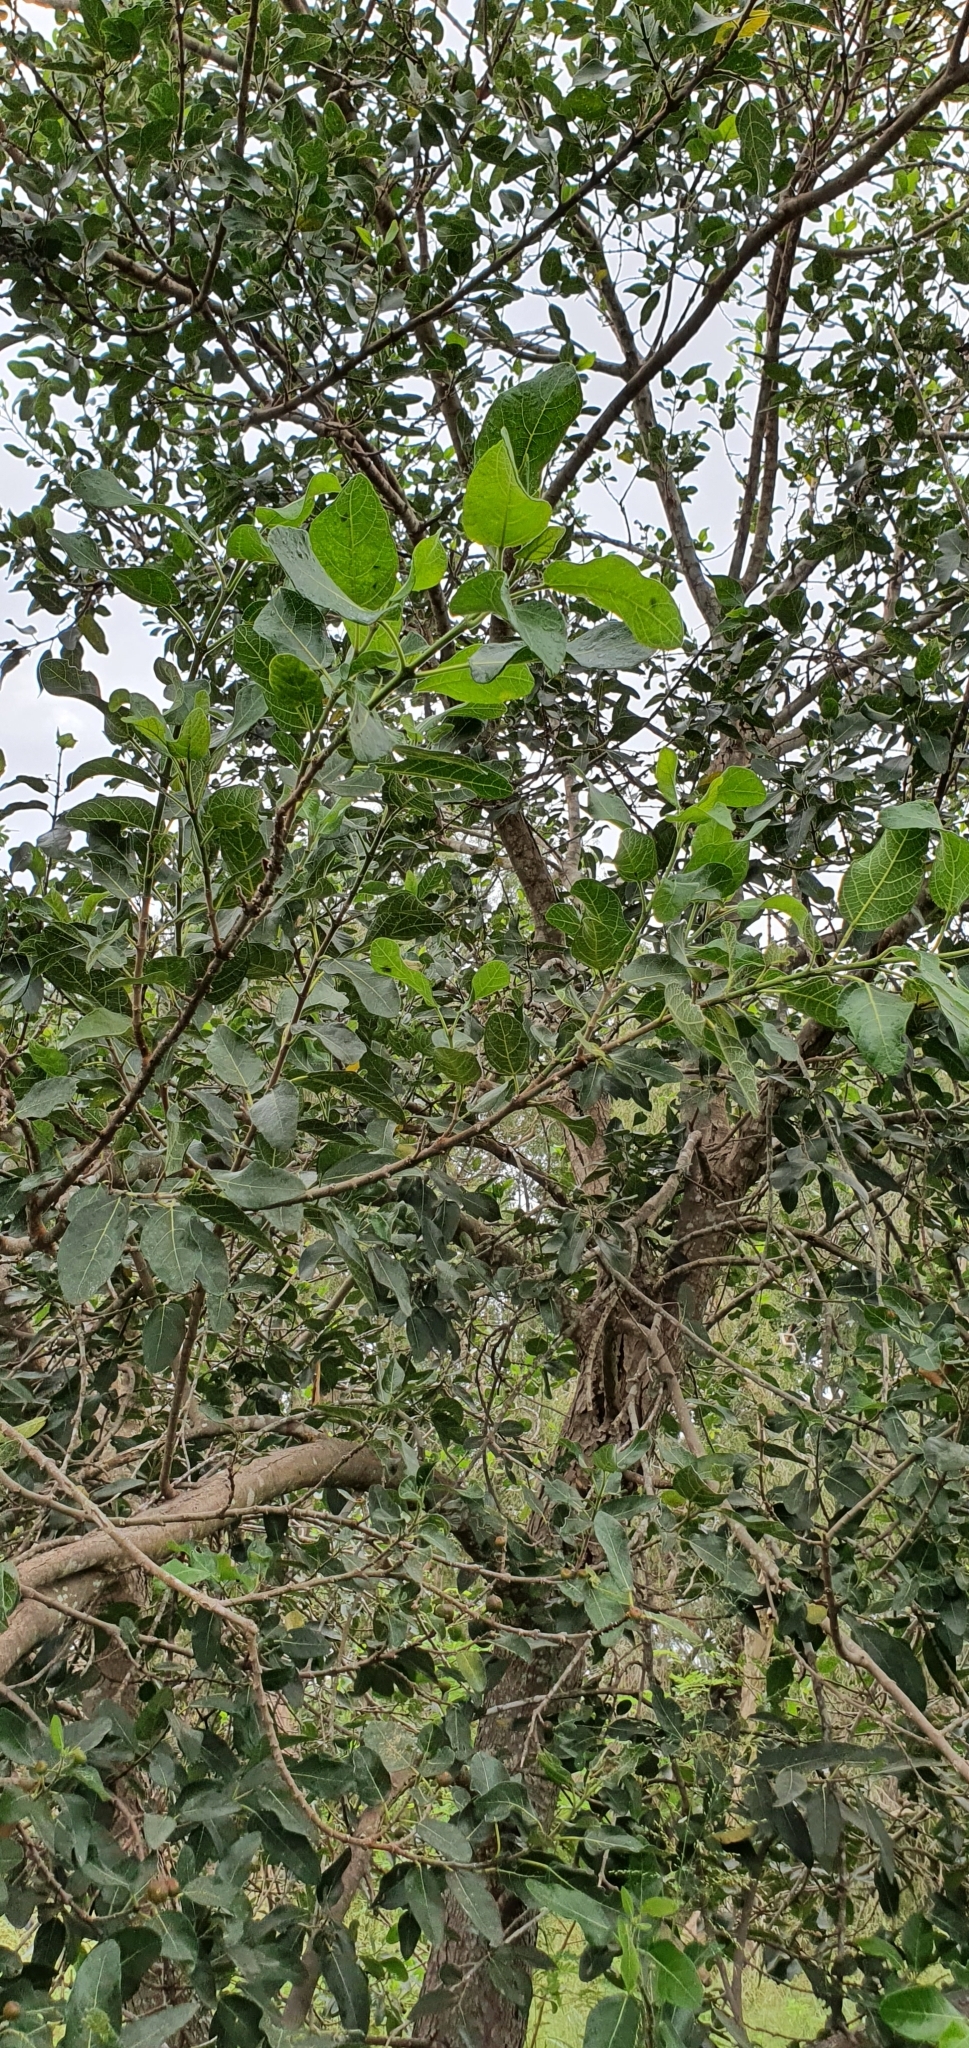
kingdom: Plantae
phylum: Tracheophyta
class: Magnoliopsida
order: Rosales
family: Moraceae
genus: Ficus
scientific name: Ficus opposita
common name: Figwood
